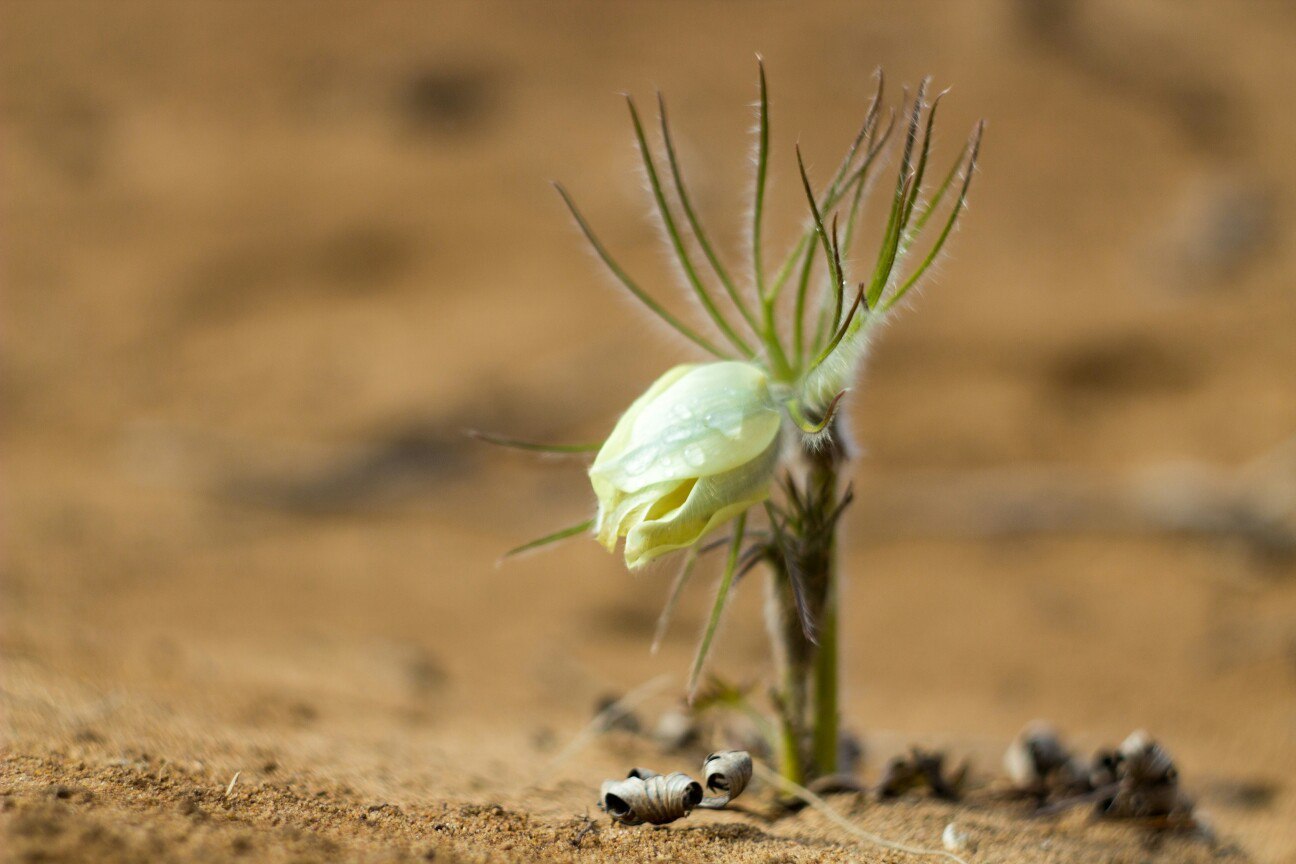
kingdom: Plantae
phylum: Tracheophyta
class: Magnoliopsida
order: Ranunculales
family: Ranunculaceae
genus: Pulsatilla
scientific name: Pulsatilla patens
